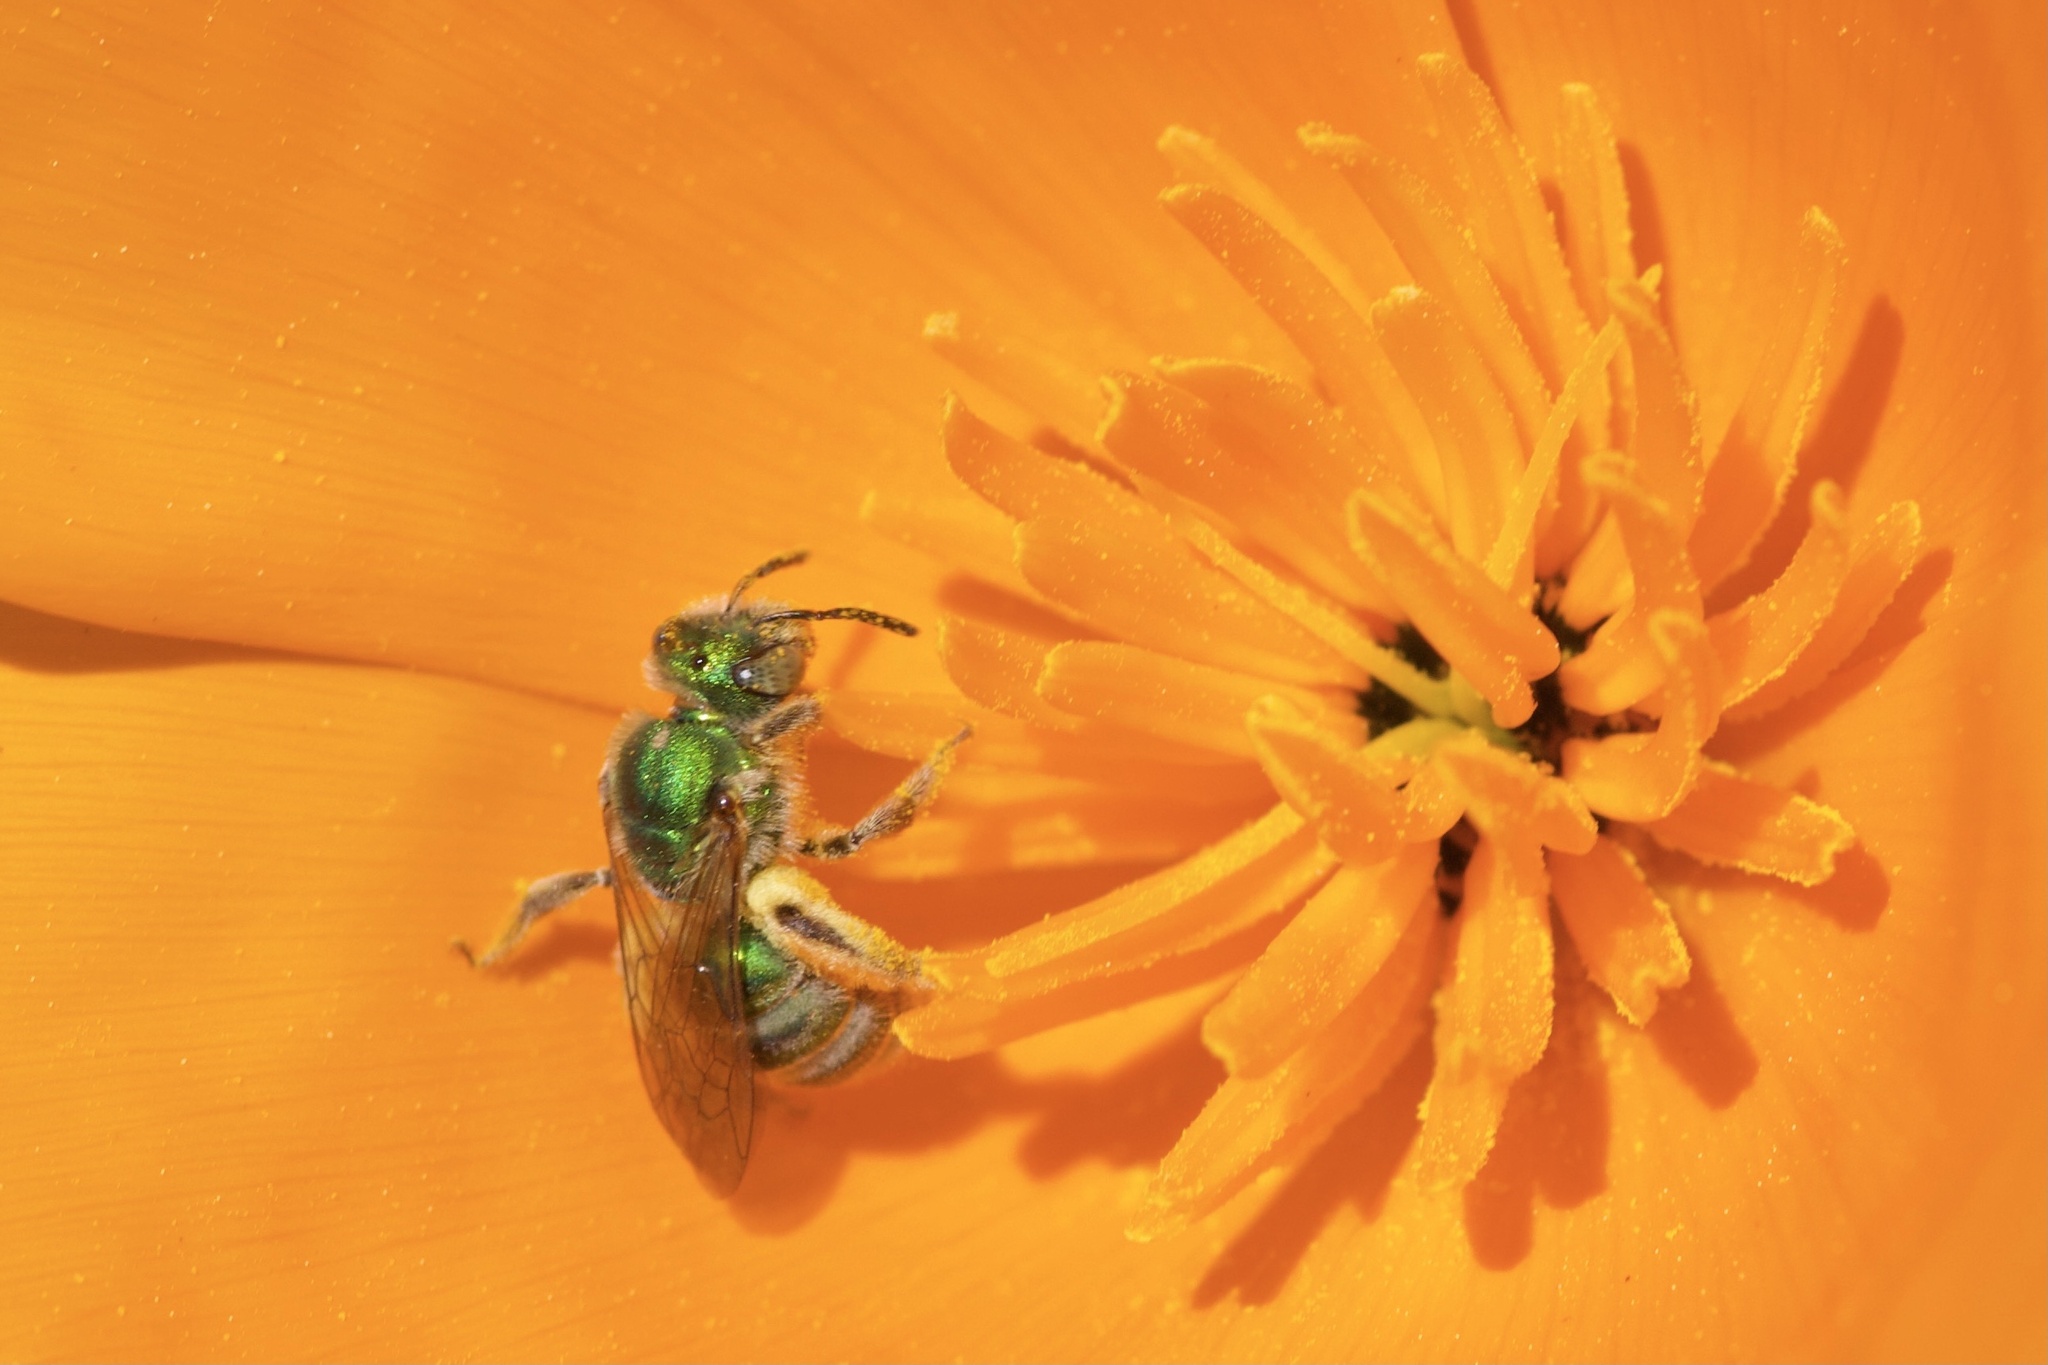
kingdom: Animalia
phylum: Arthropoda
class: Insecta
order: Hymenoptera
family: Halictidae
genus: Agapostemon
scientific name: Agapostemon texanus
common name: Texas striped sweat bee
